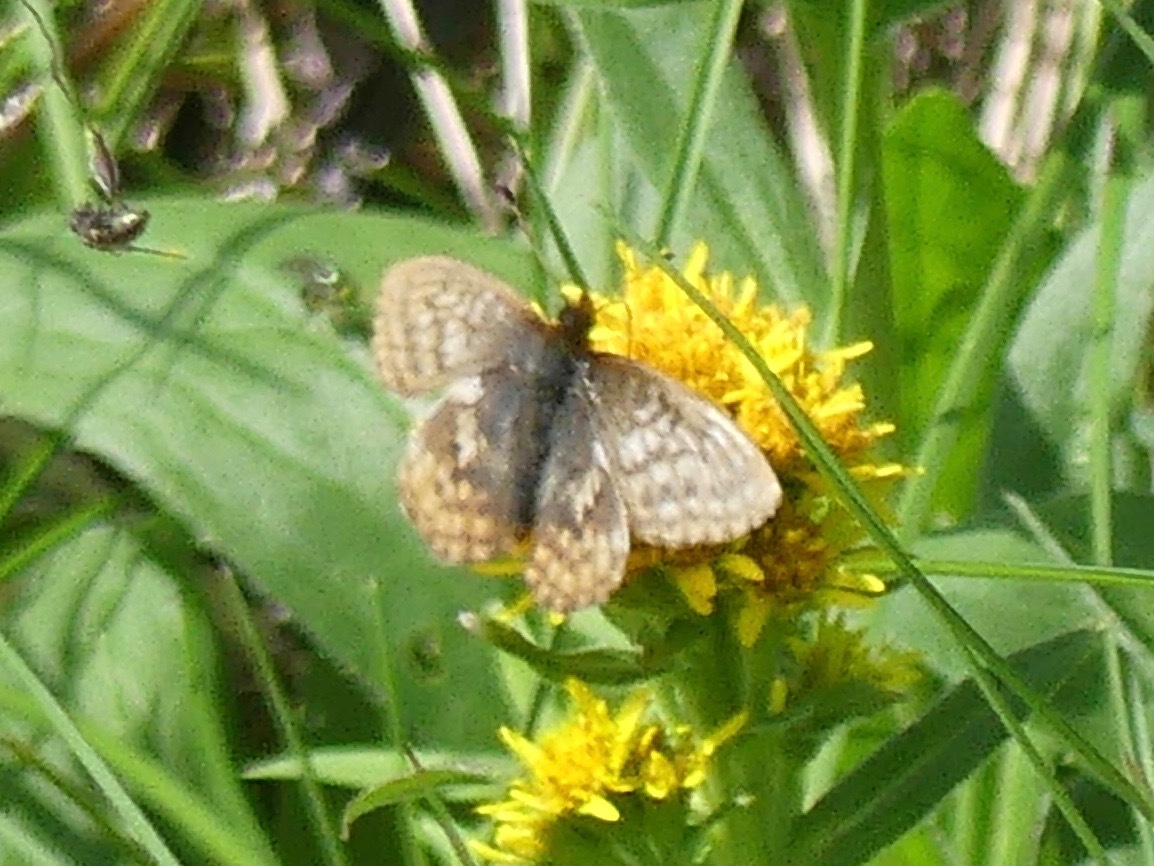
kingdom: Animalia
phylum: Arthropoda
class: Insecta
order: Lepidoptera
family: Nymphalidae
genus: Clossiana
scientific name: Clossiana improba
